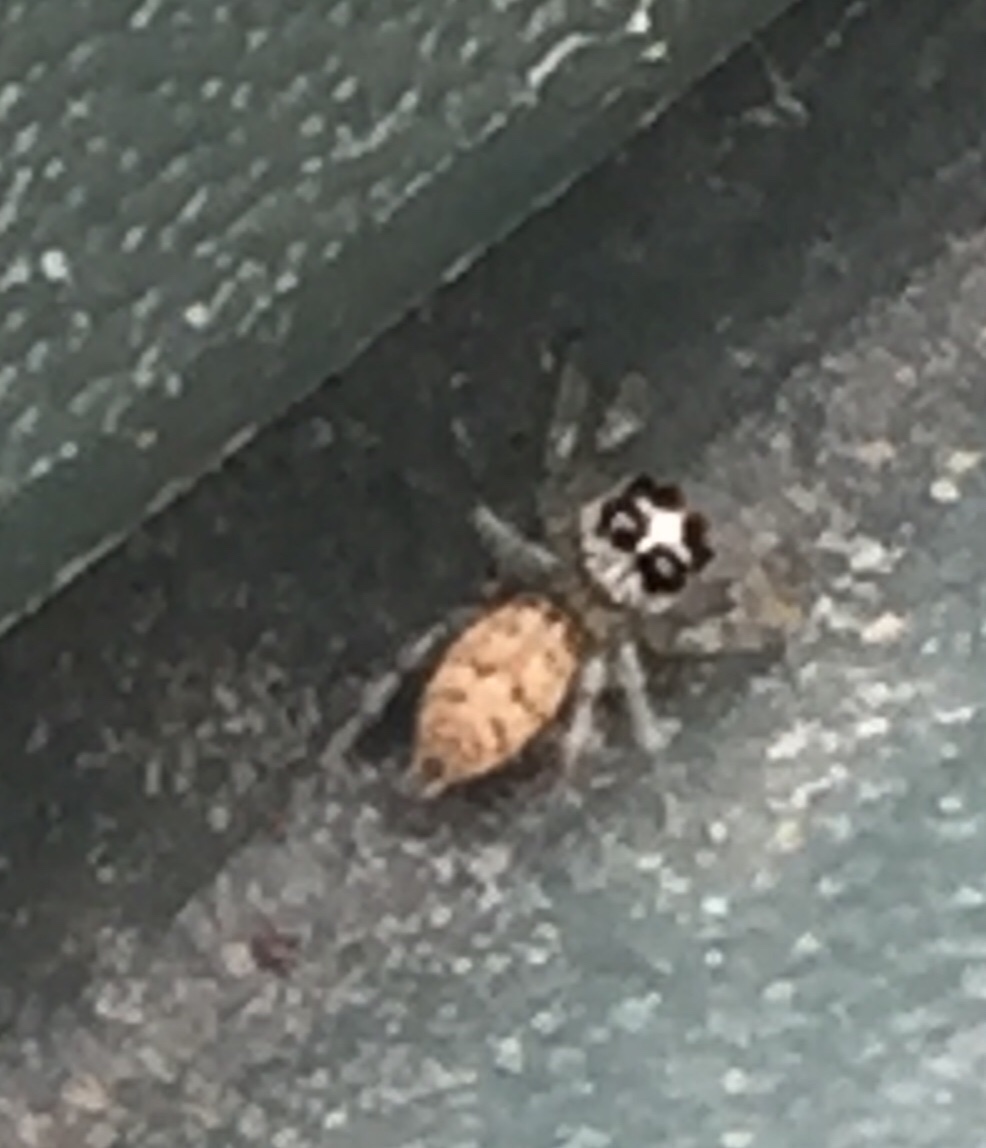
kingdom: Animalia
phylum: Arthropoda
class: Arachnida
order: Araneae
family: Salticidae
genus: Colonus
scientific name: Colonus hesperus
